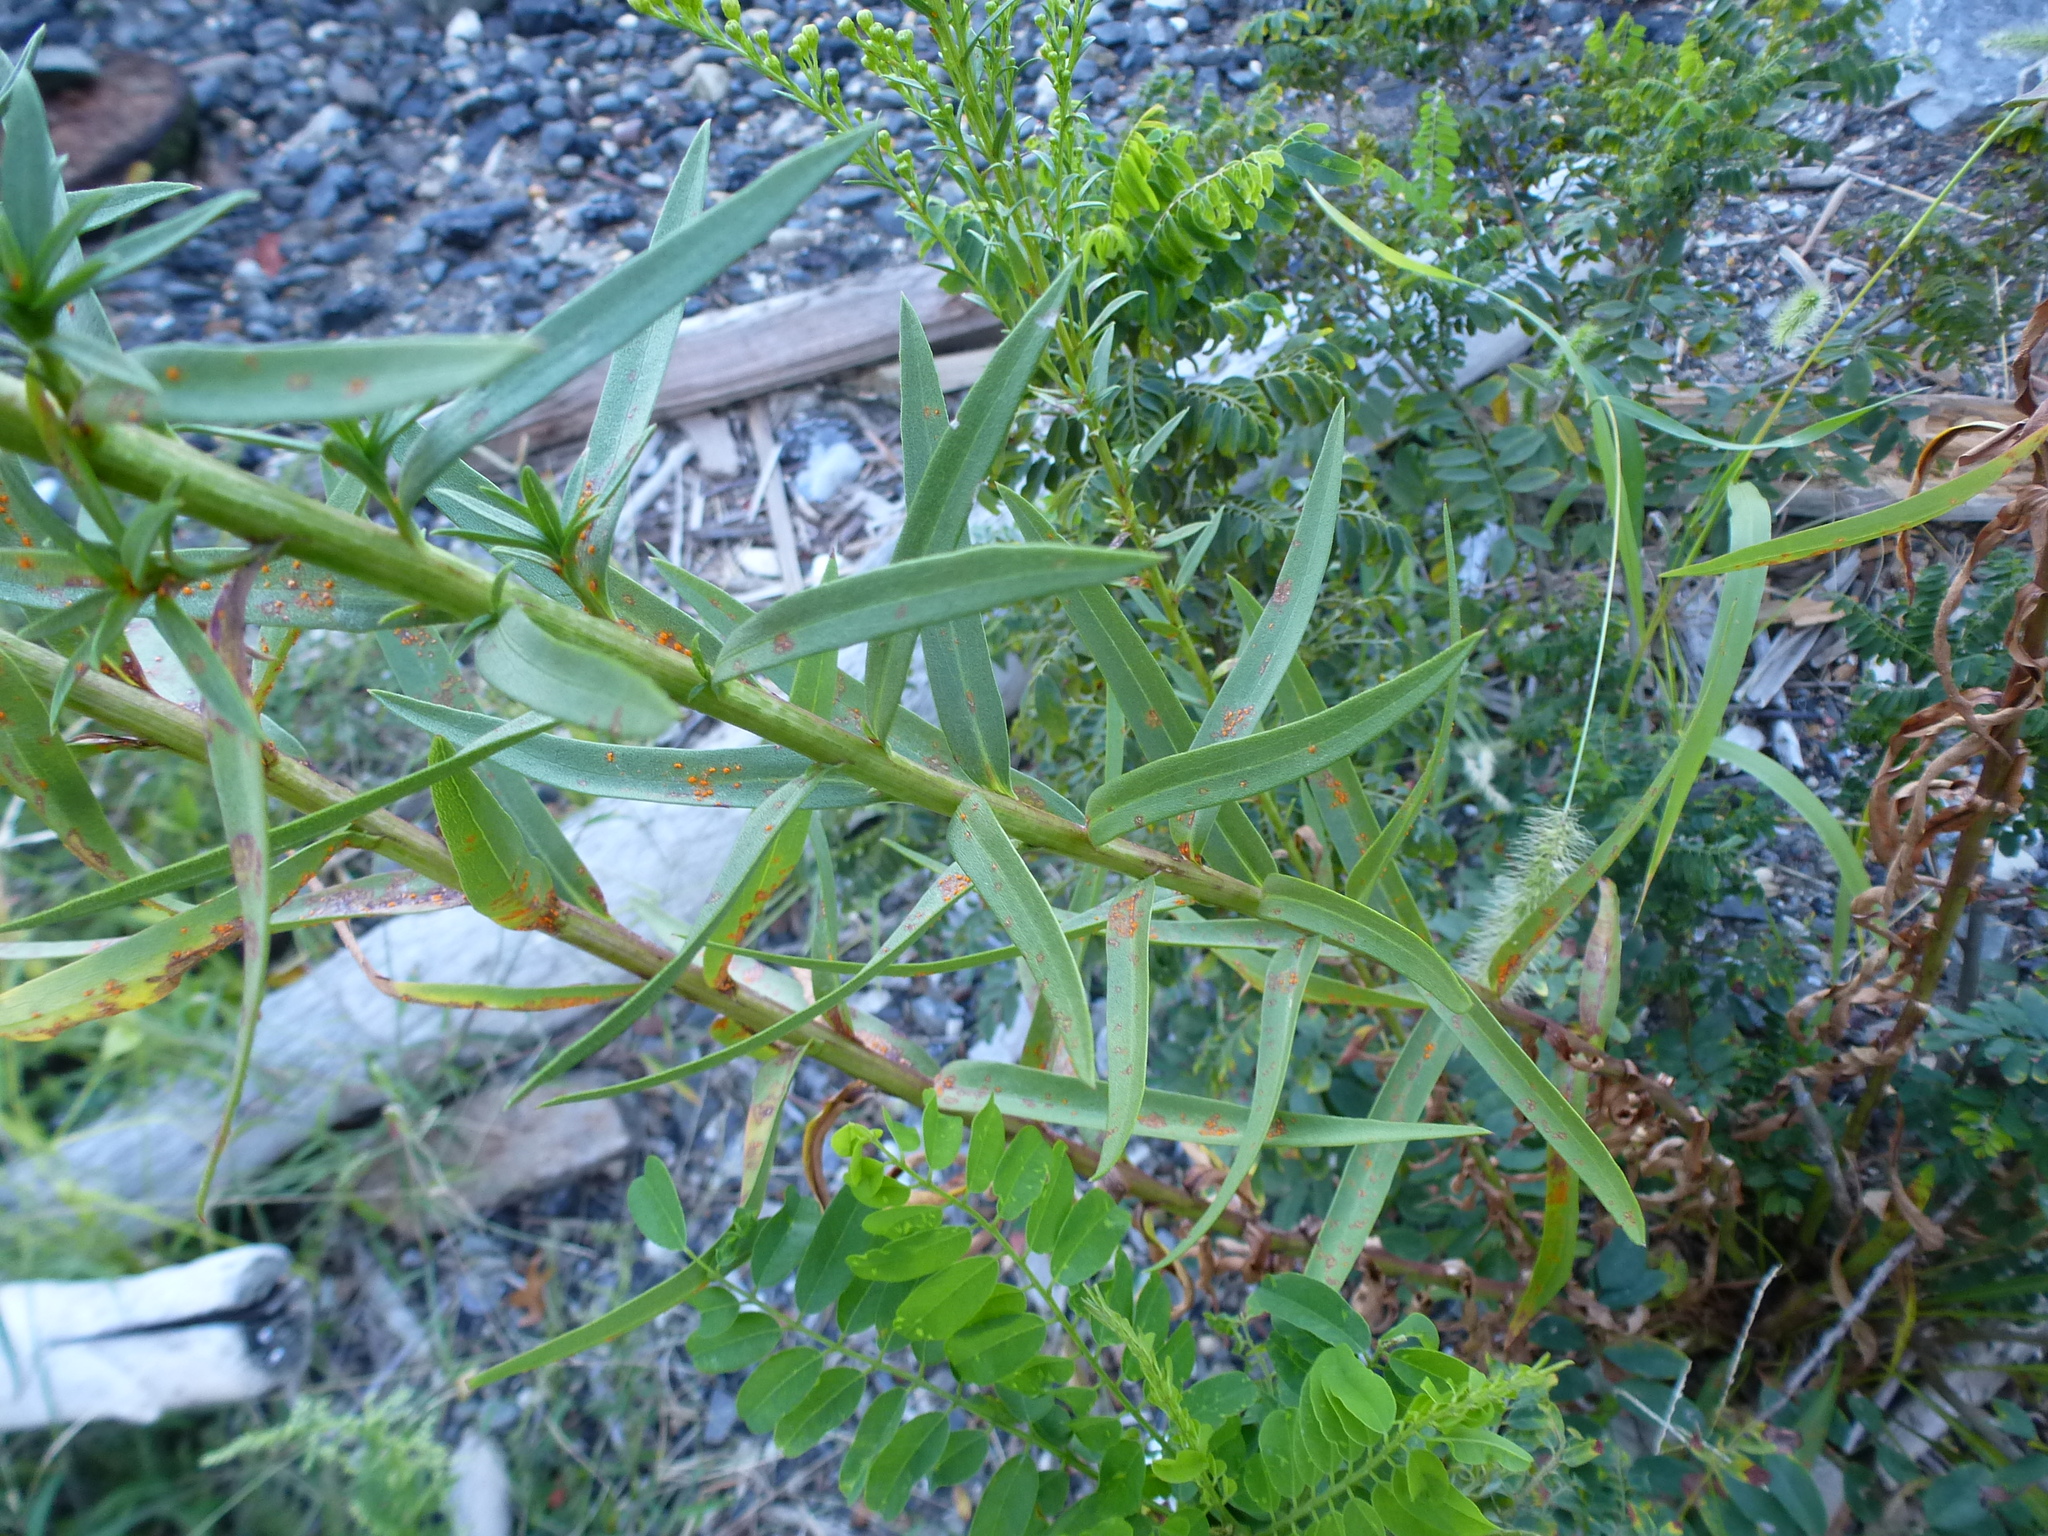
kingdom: Plantae
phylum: Tracheophyta
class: Magnoliopsida
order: Asterales
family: Asteraceae
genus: Solidago
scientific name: Solidago sempervirens
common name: Salt-marsh goldenrod
